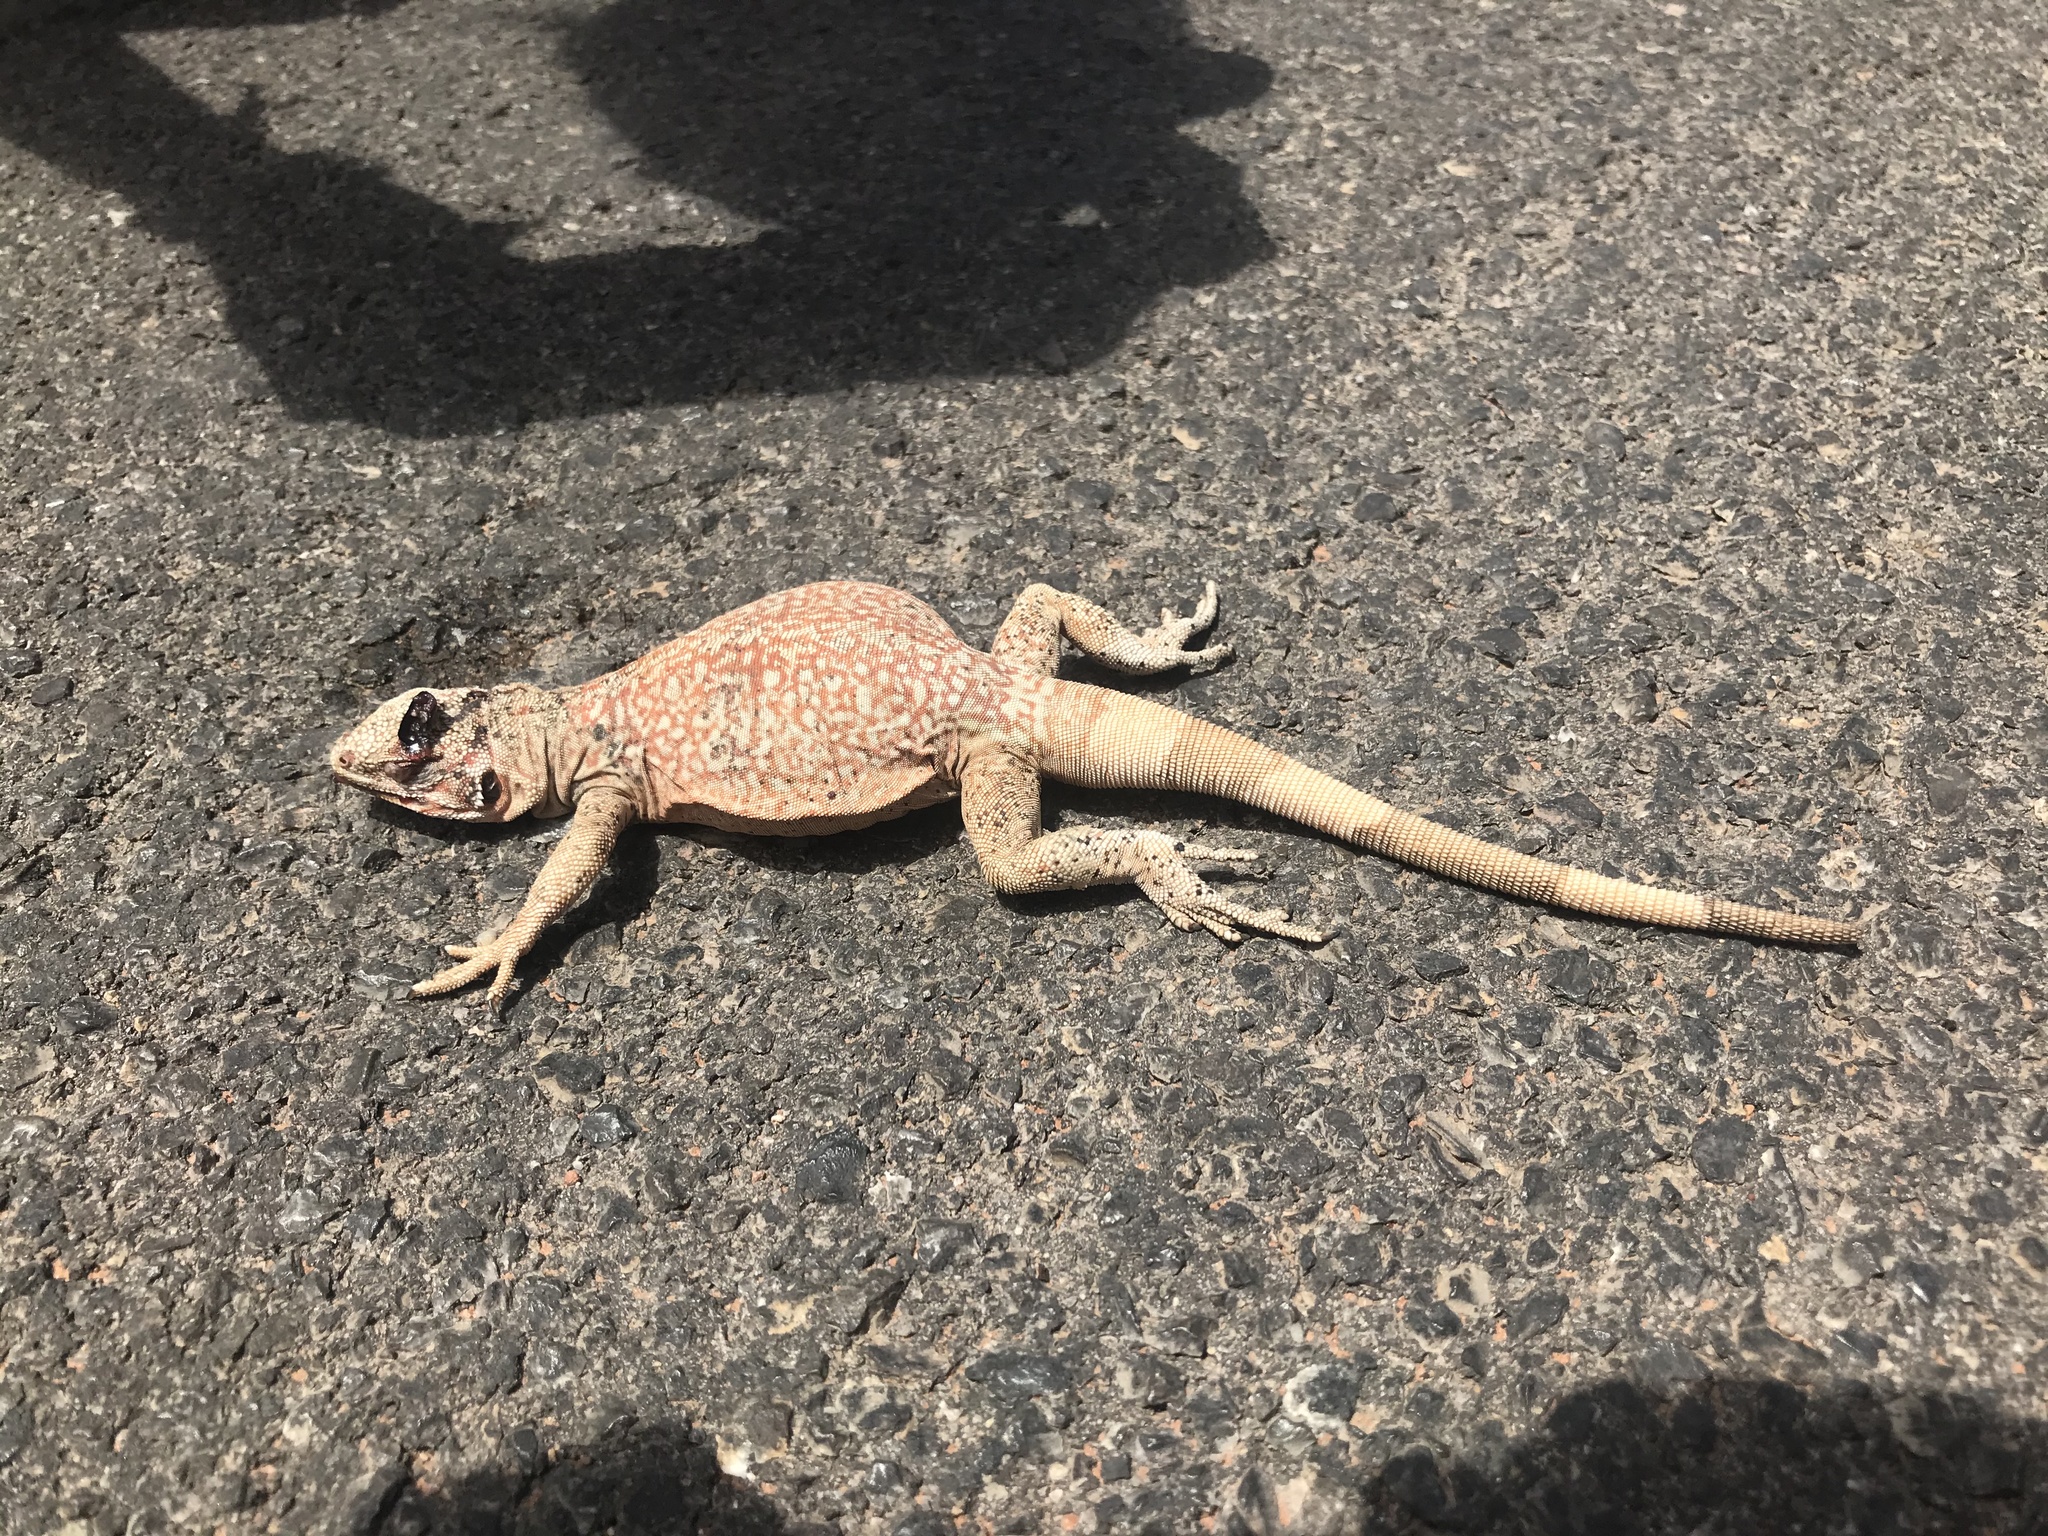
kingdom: Animalia
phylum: Chordata
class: Squamata
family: Iguanidae
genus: Sauromalus
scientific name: Sauromalus ater
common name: Northern chuckwalla
